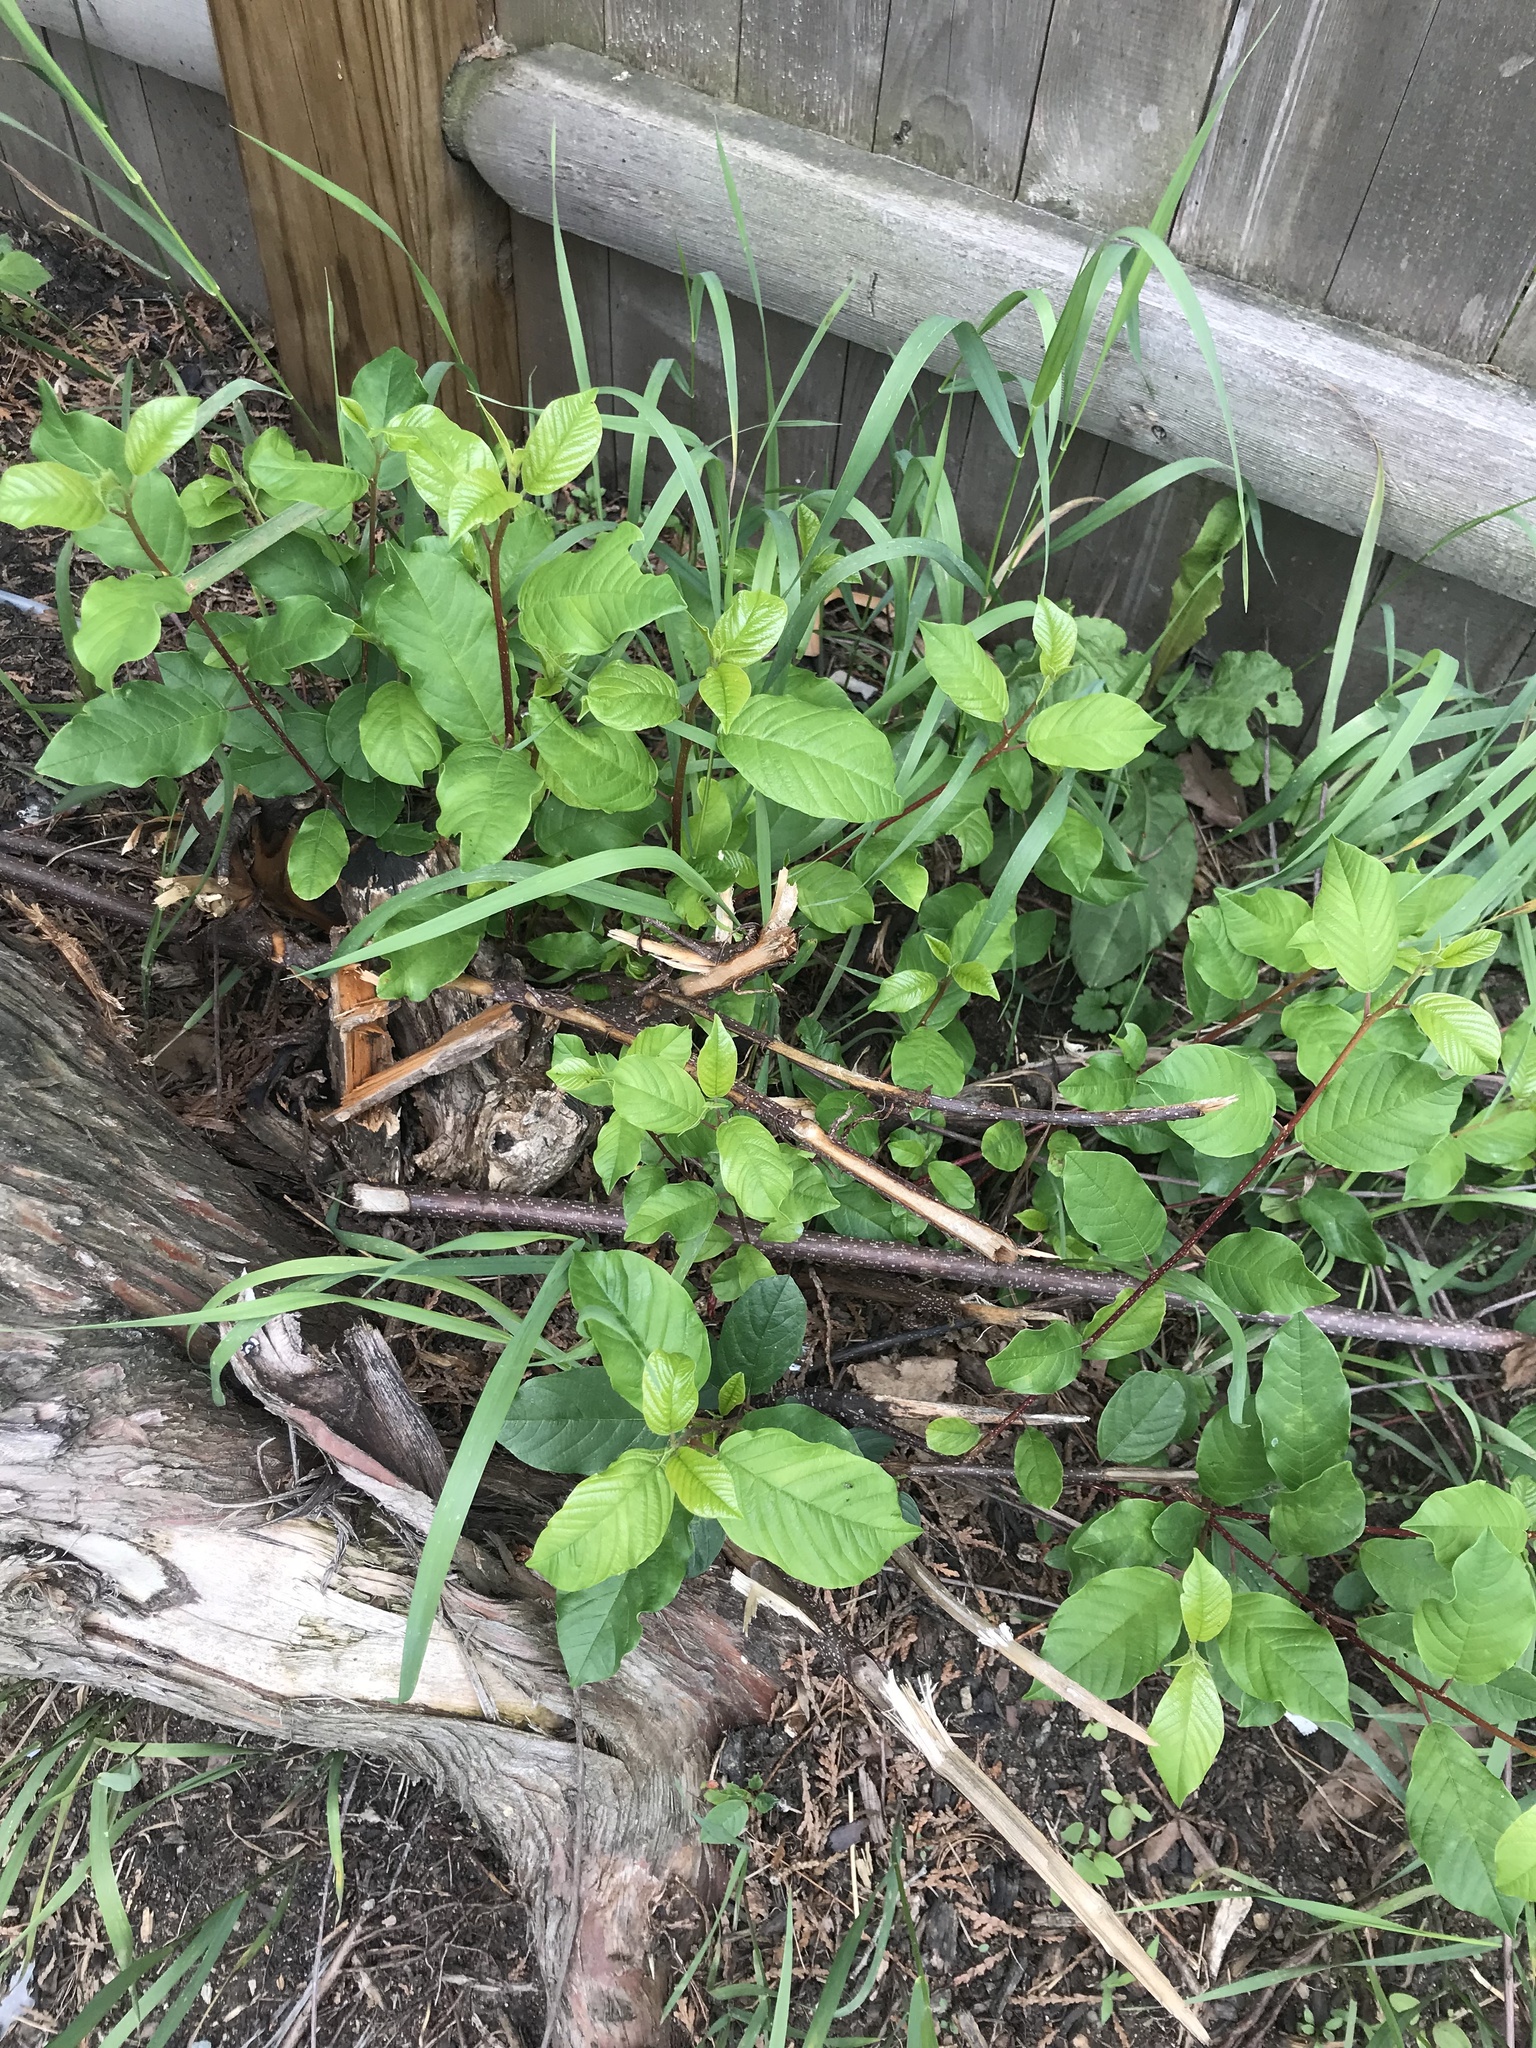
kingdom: Plantae
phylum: Tracheophyta
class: Magnoliopsida
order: Rosales
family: Rhamnaceae
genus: Frangula
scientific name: Frangula alnus
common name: Alder buckthorn
